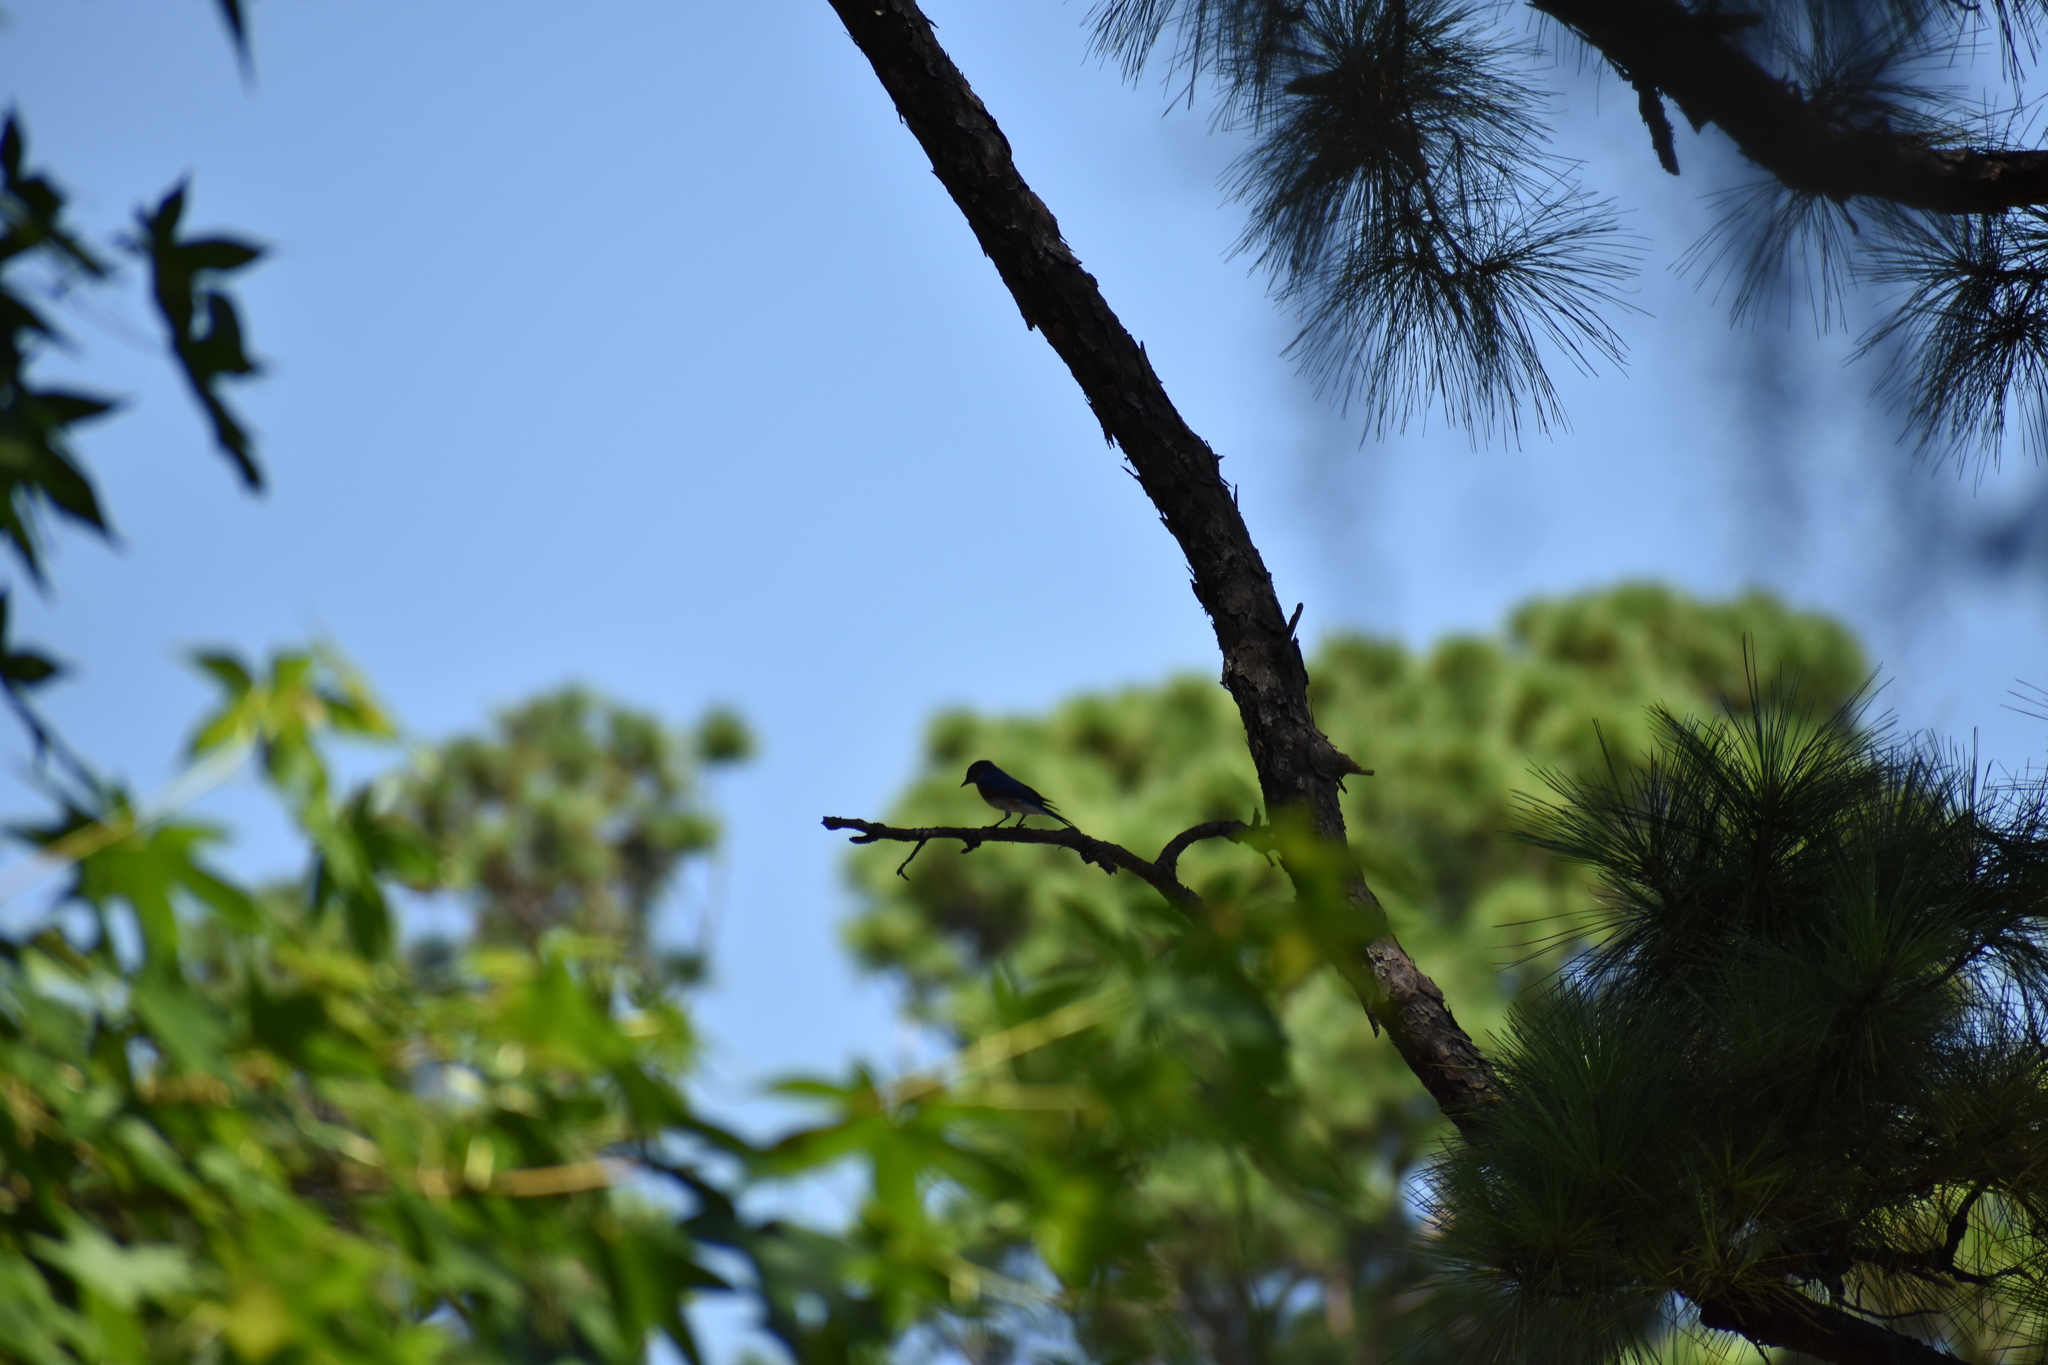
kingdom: Animalia
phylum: Chordata
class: Aves
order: Passeriformes
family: Turdidae
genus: Sialia
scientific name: Sialia sialis
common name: Eastern bluebird
